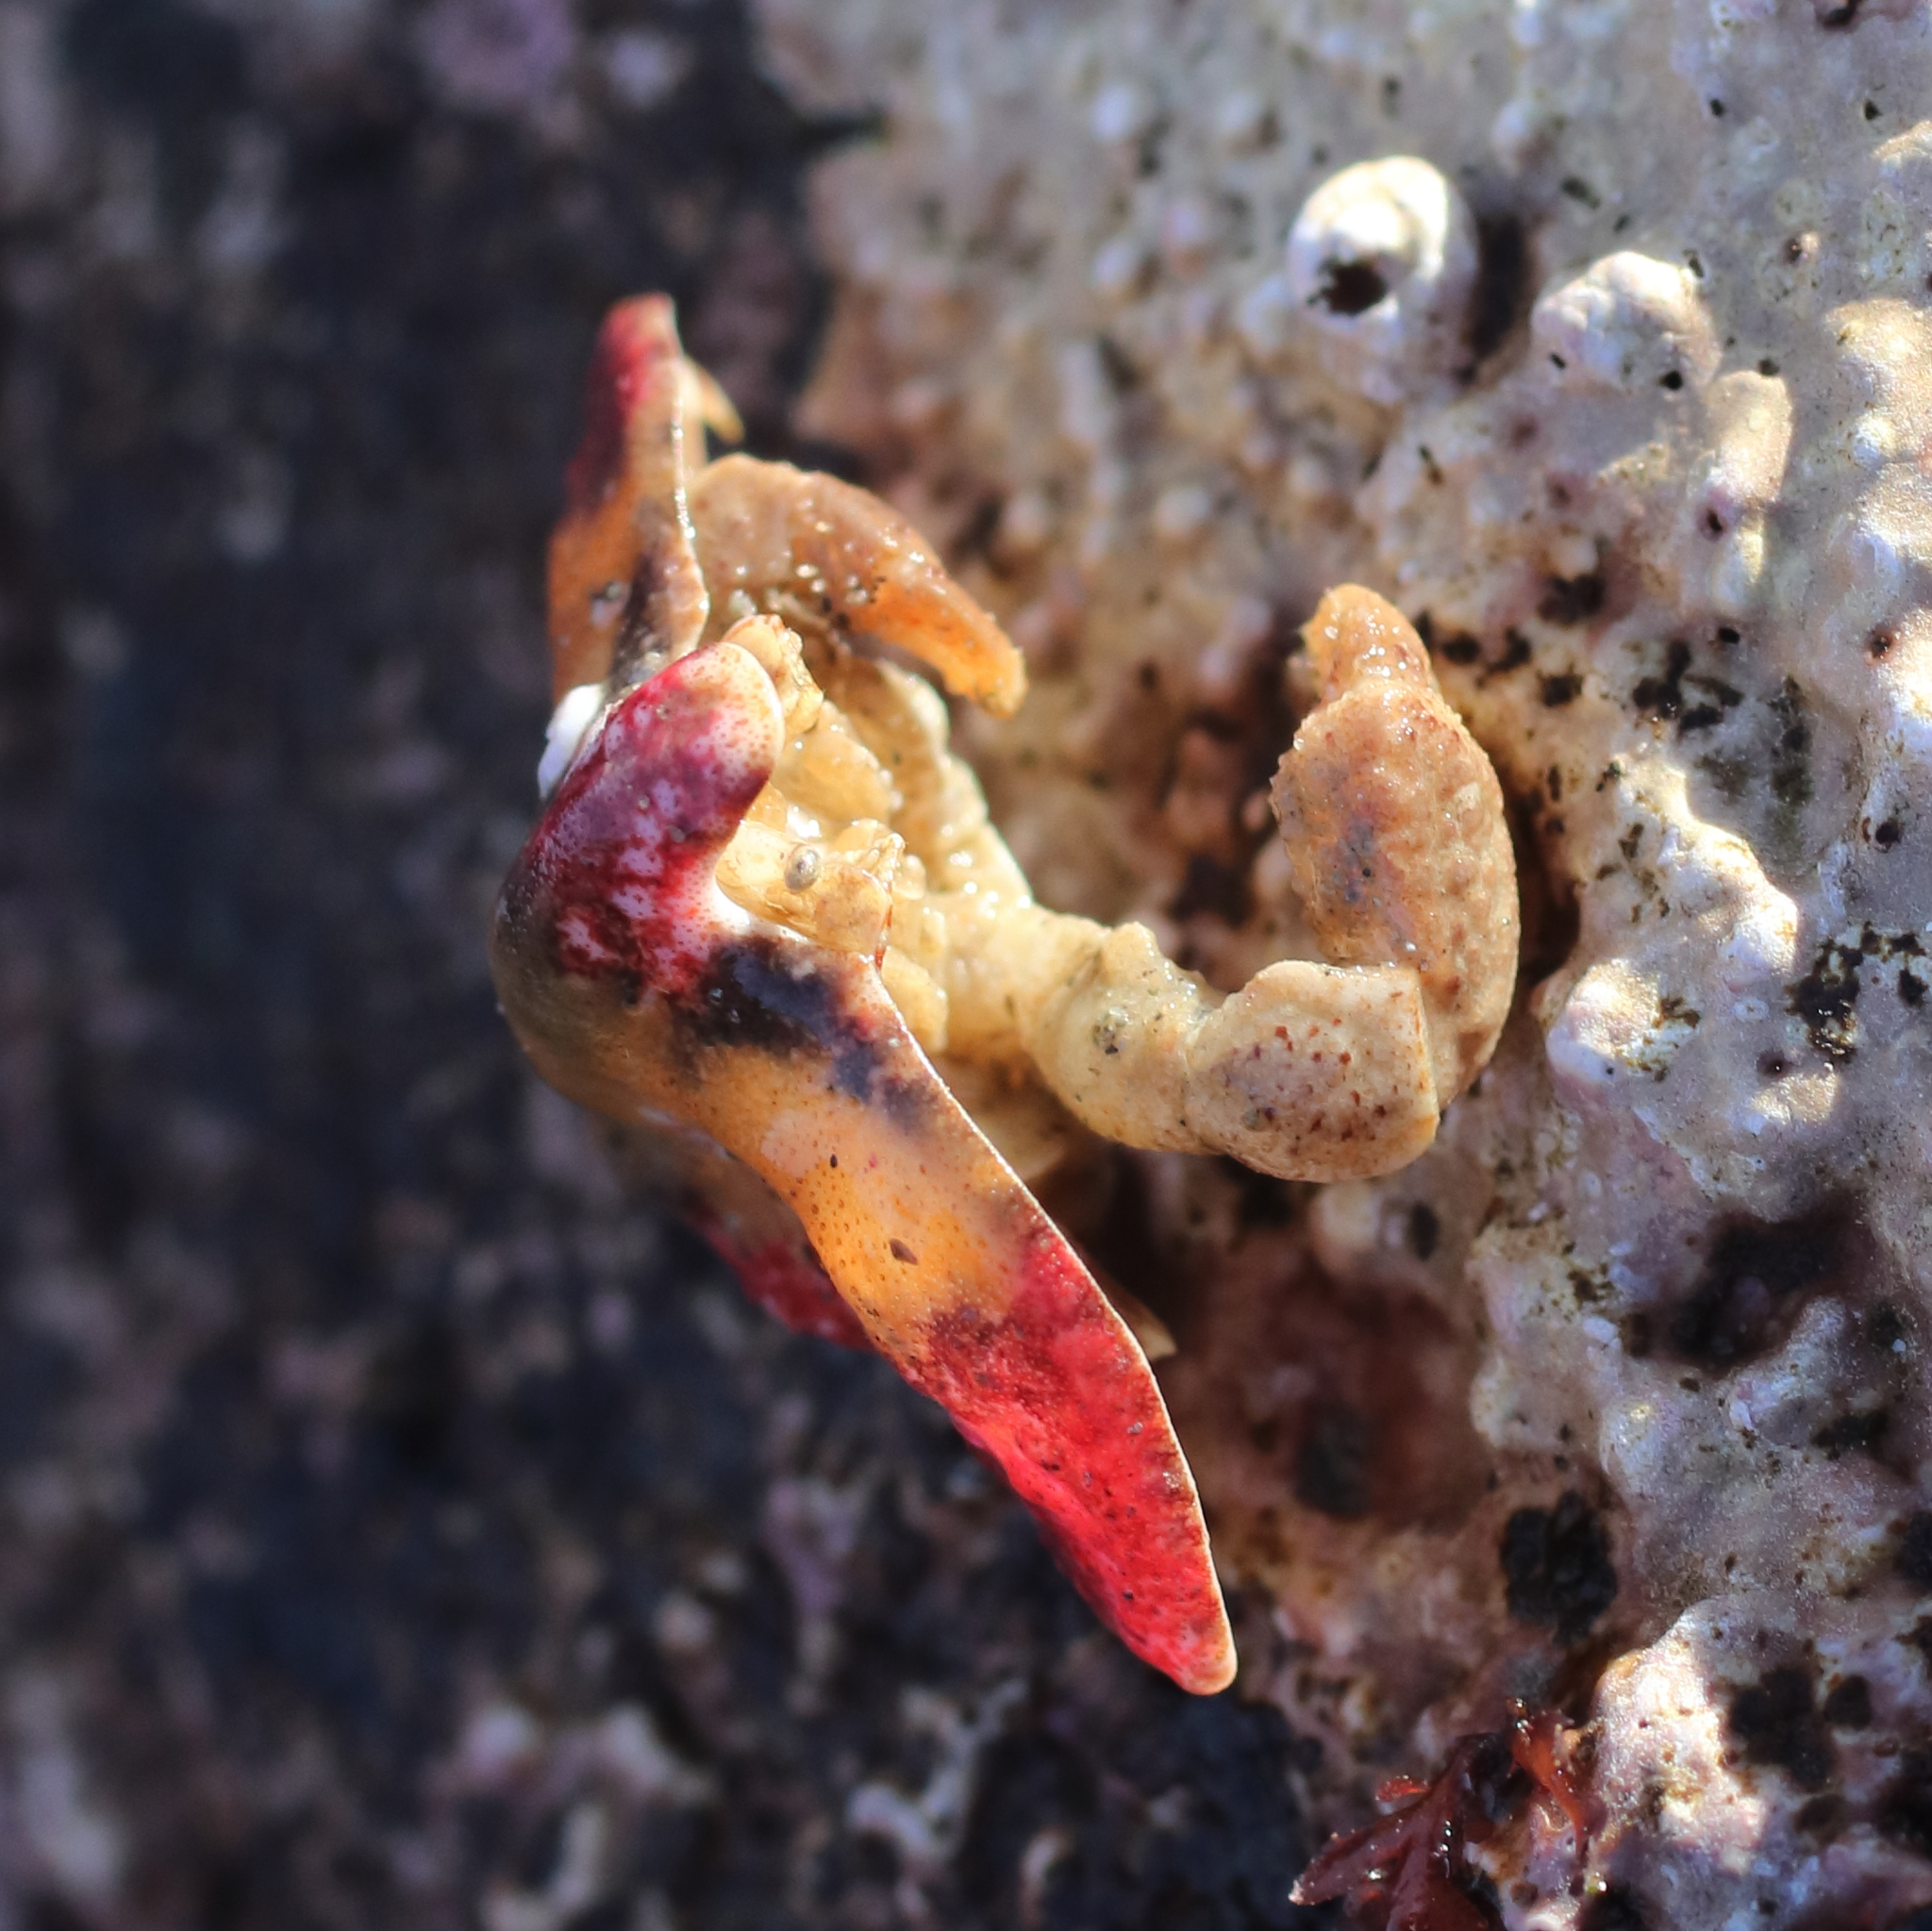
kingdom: Animalia
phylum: Arthropoda
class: Malacostraca
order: Decapoda
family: Lithodidae
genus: Cryptolithodes
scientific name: Cryptolithodes typicus
